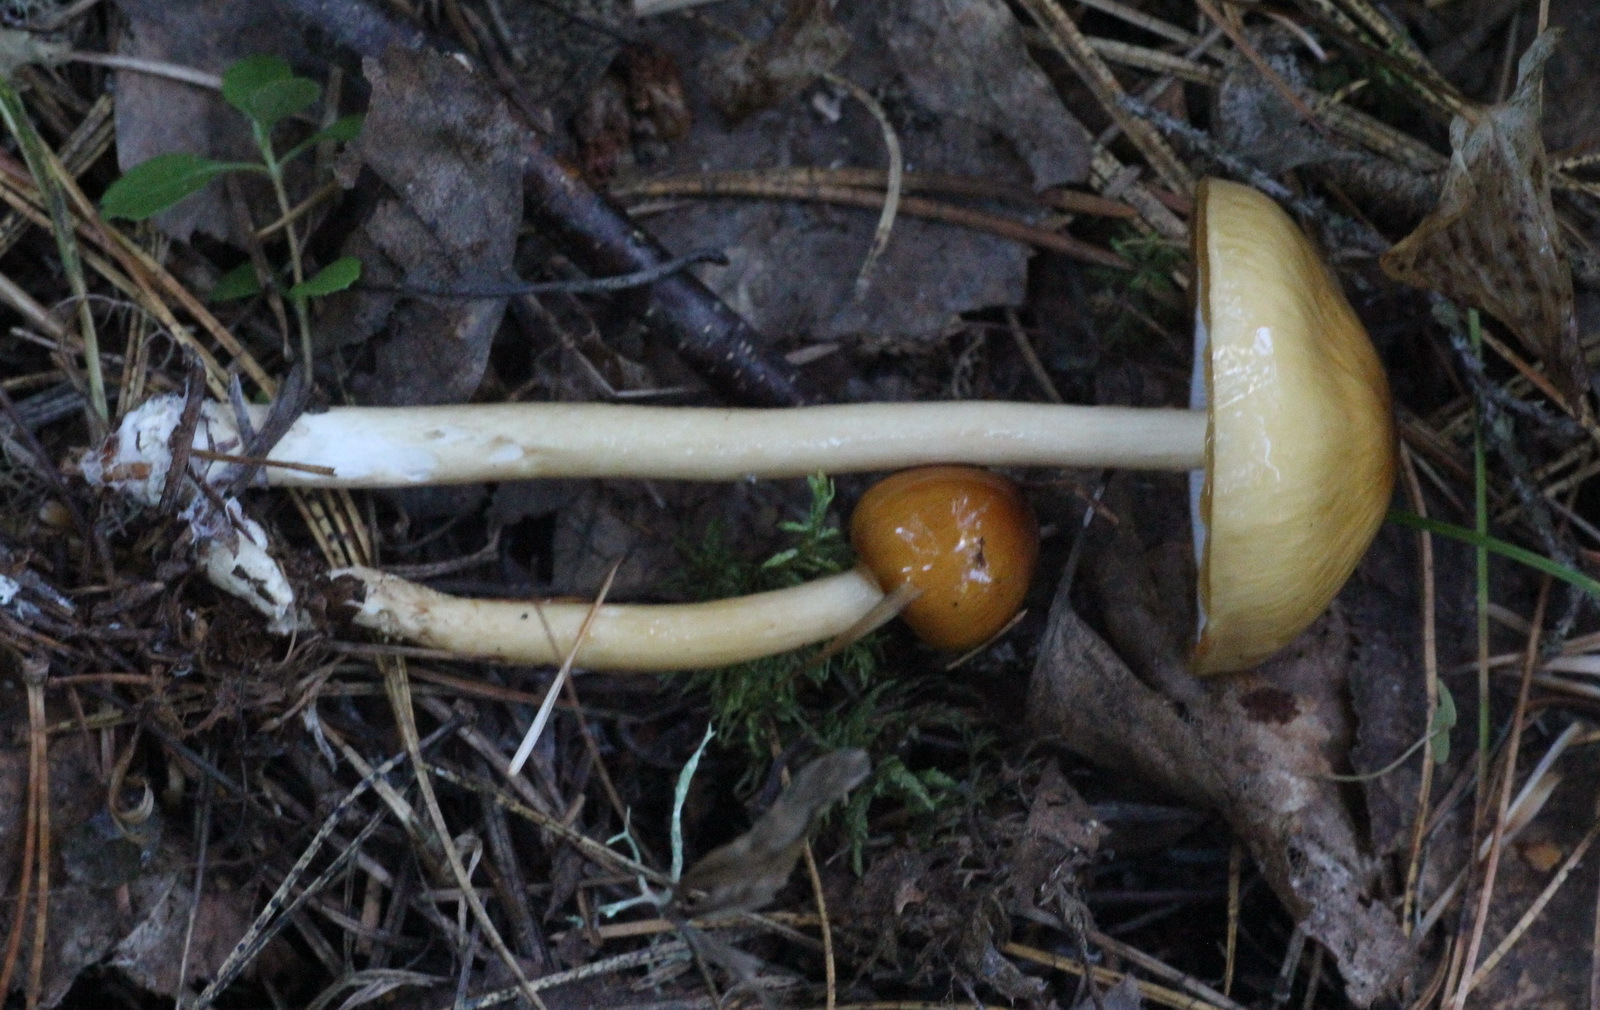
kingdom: Fungi
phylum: Basidiomycota
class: Agaricomycetes
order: Agaricales
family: Amanitaceae
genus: Zhuliangomyces
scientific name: Zhuliangomyces illinitus
